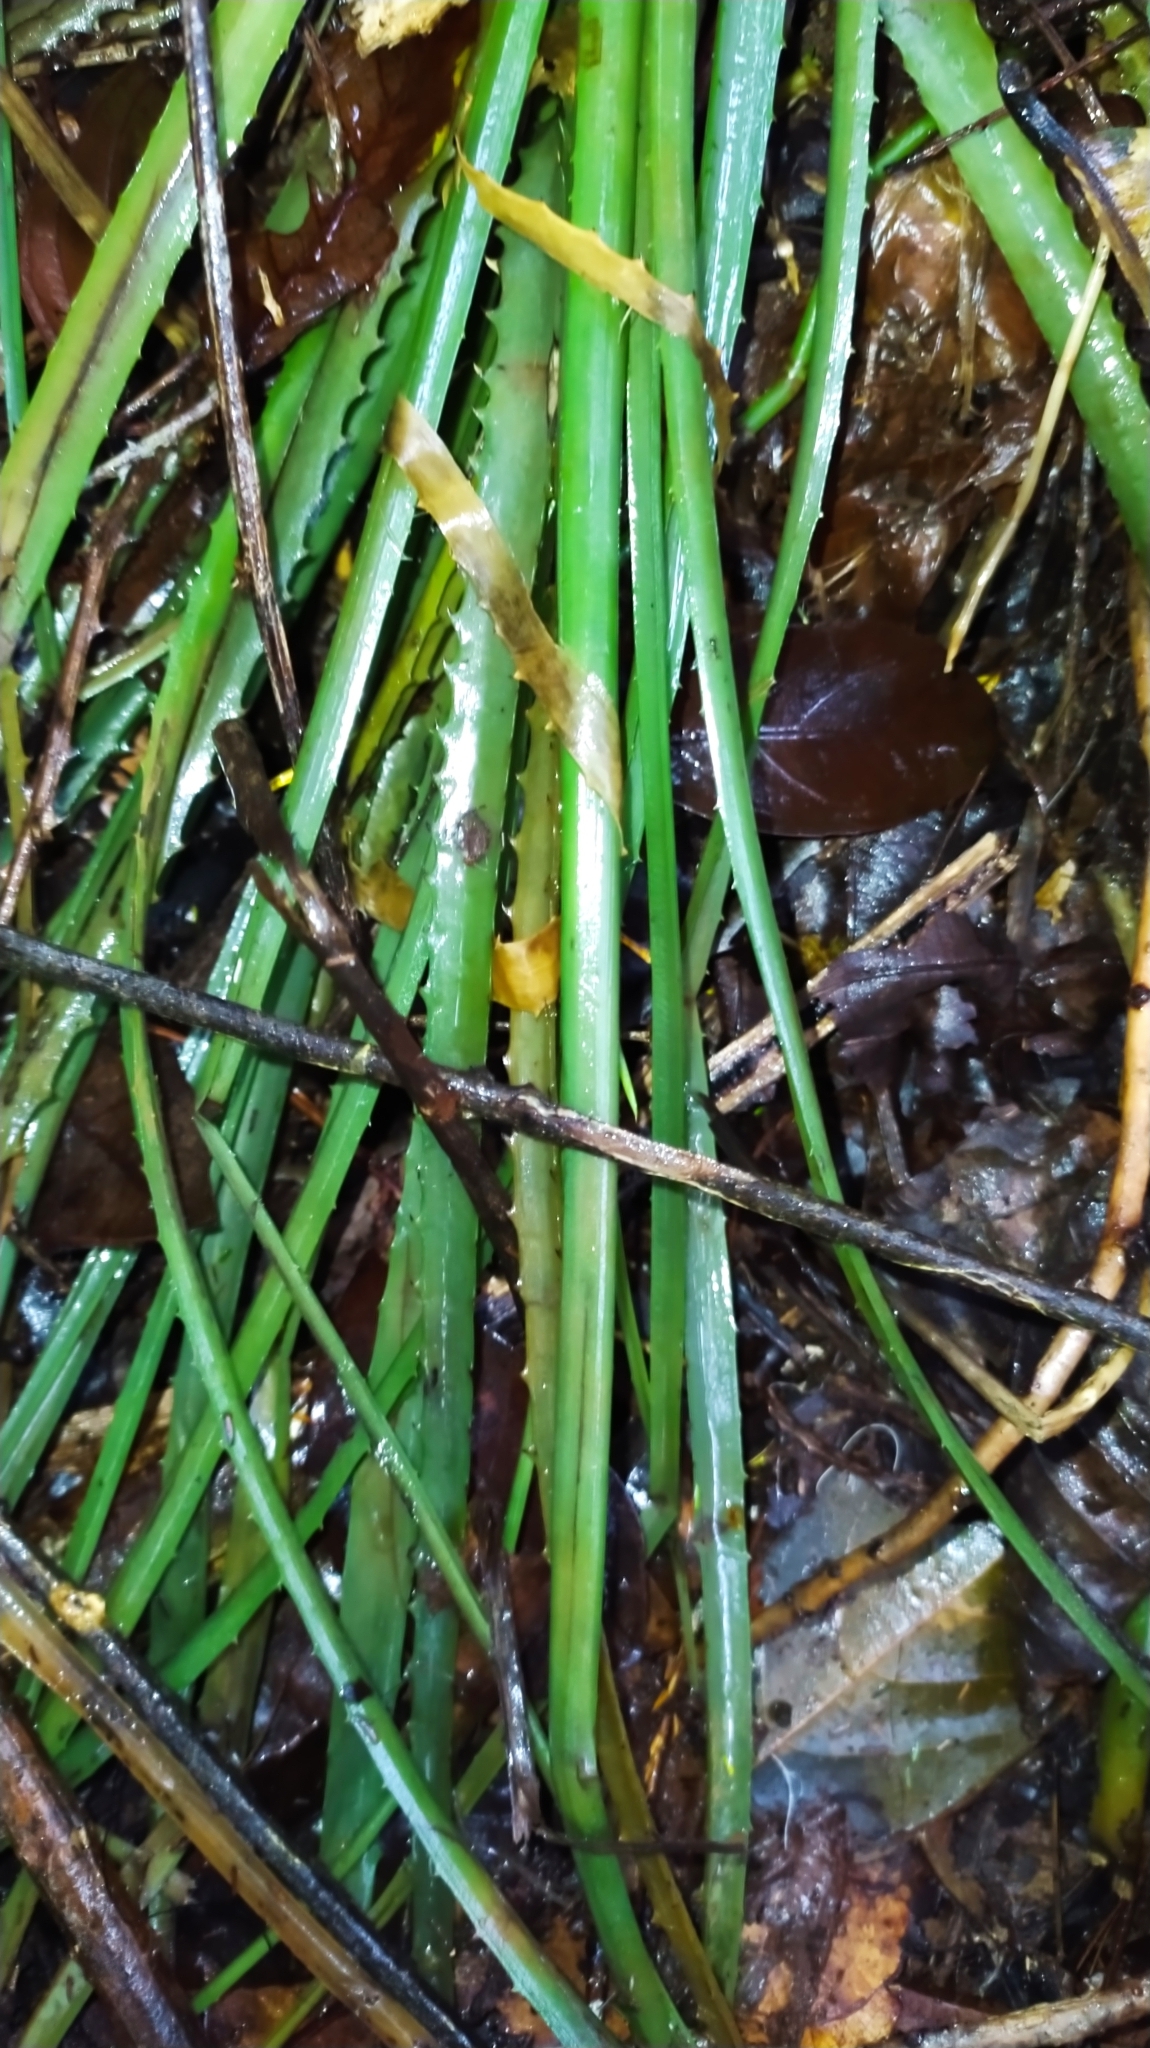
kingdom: Plantae
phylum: Tracheophyta
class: Liliopsida
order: Poales
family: Bromeliaceae
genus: Aechmea
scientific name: Aechmea longifolia
